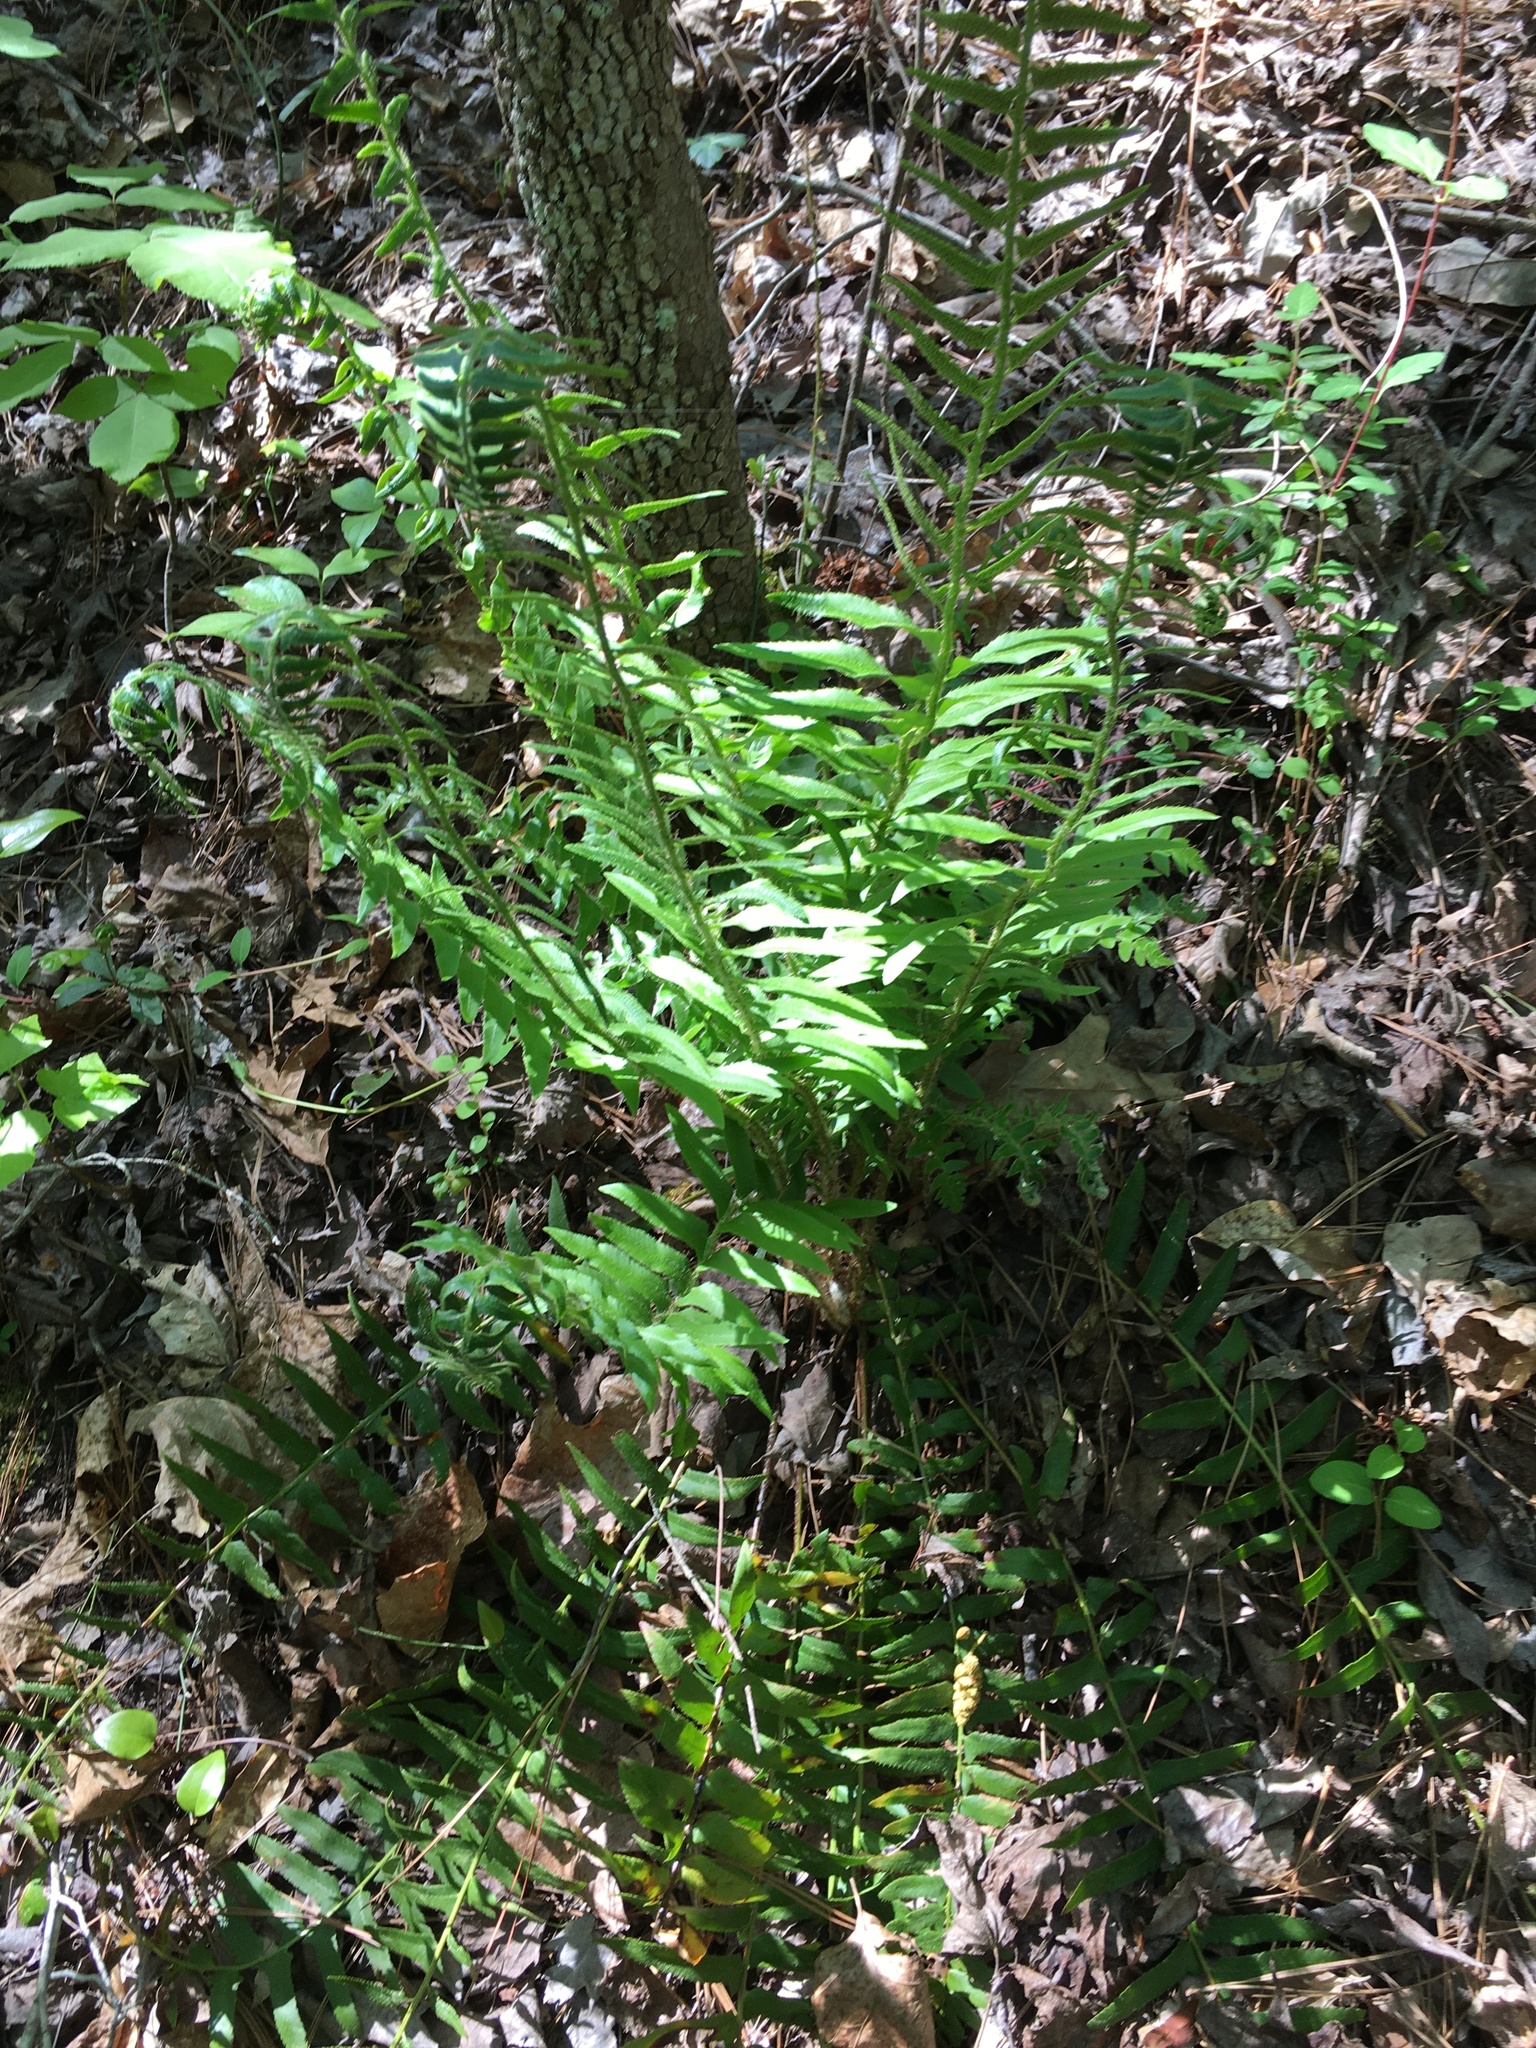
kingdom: Plantae
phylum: Tracheophyta
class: Polypodiopsida
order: Polypodiales
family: Dryopteridaceae
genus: Polystichum
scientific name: Polystichum acrostichoides
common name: Christmas fern
